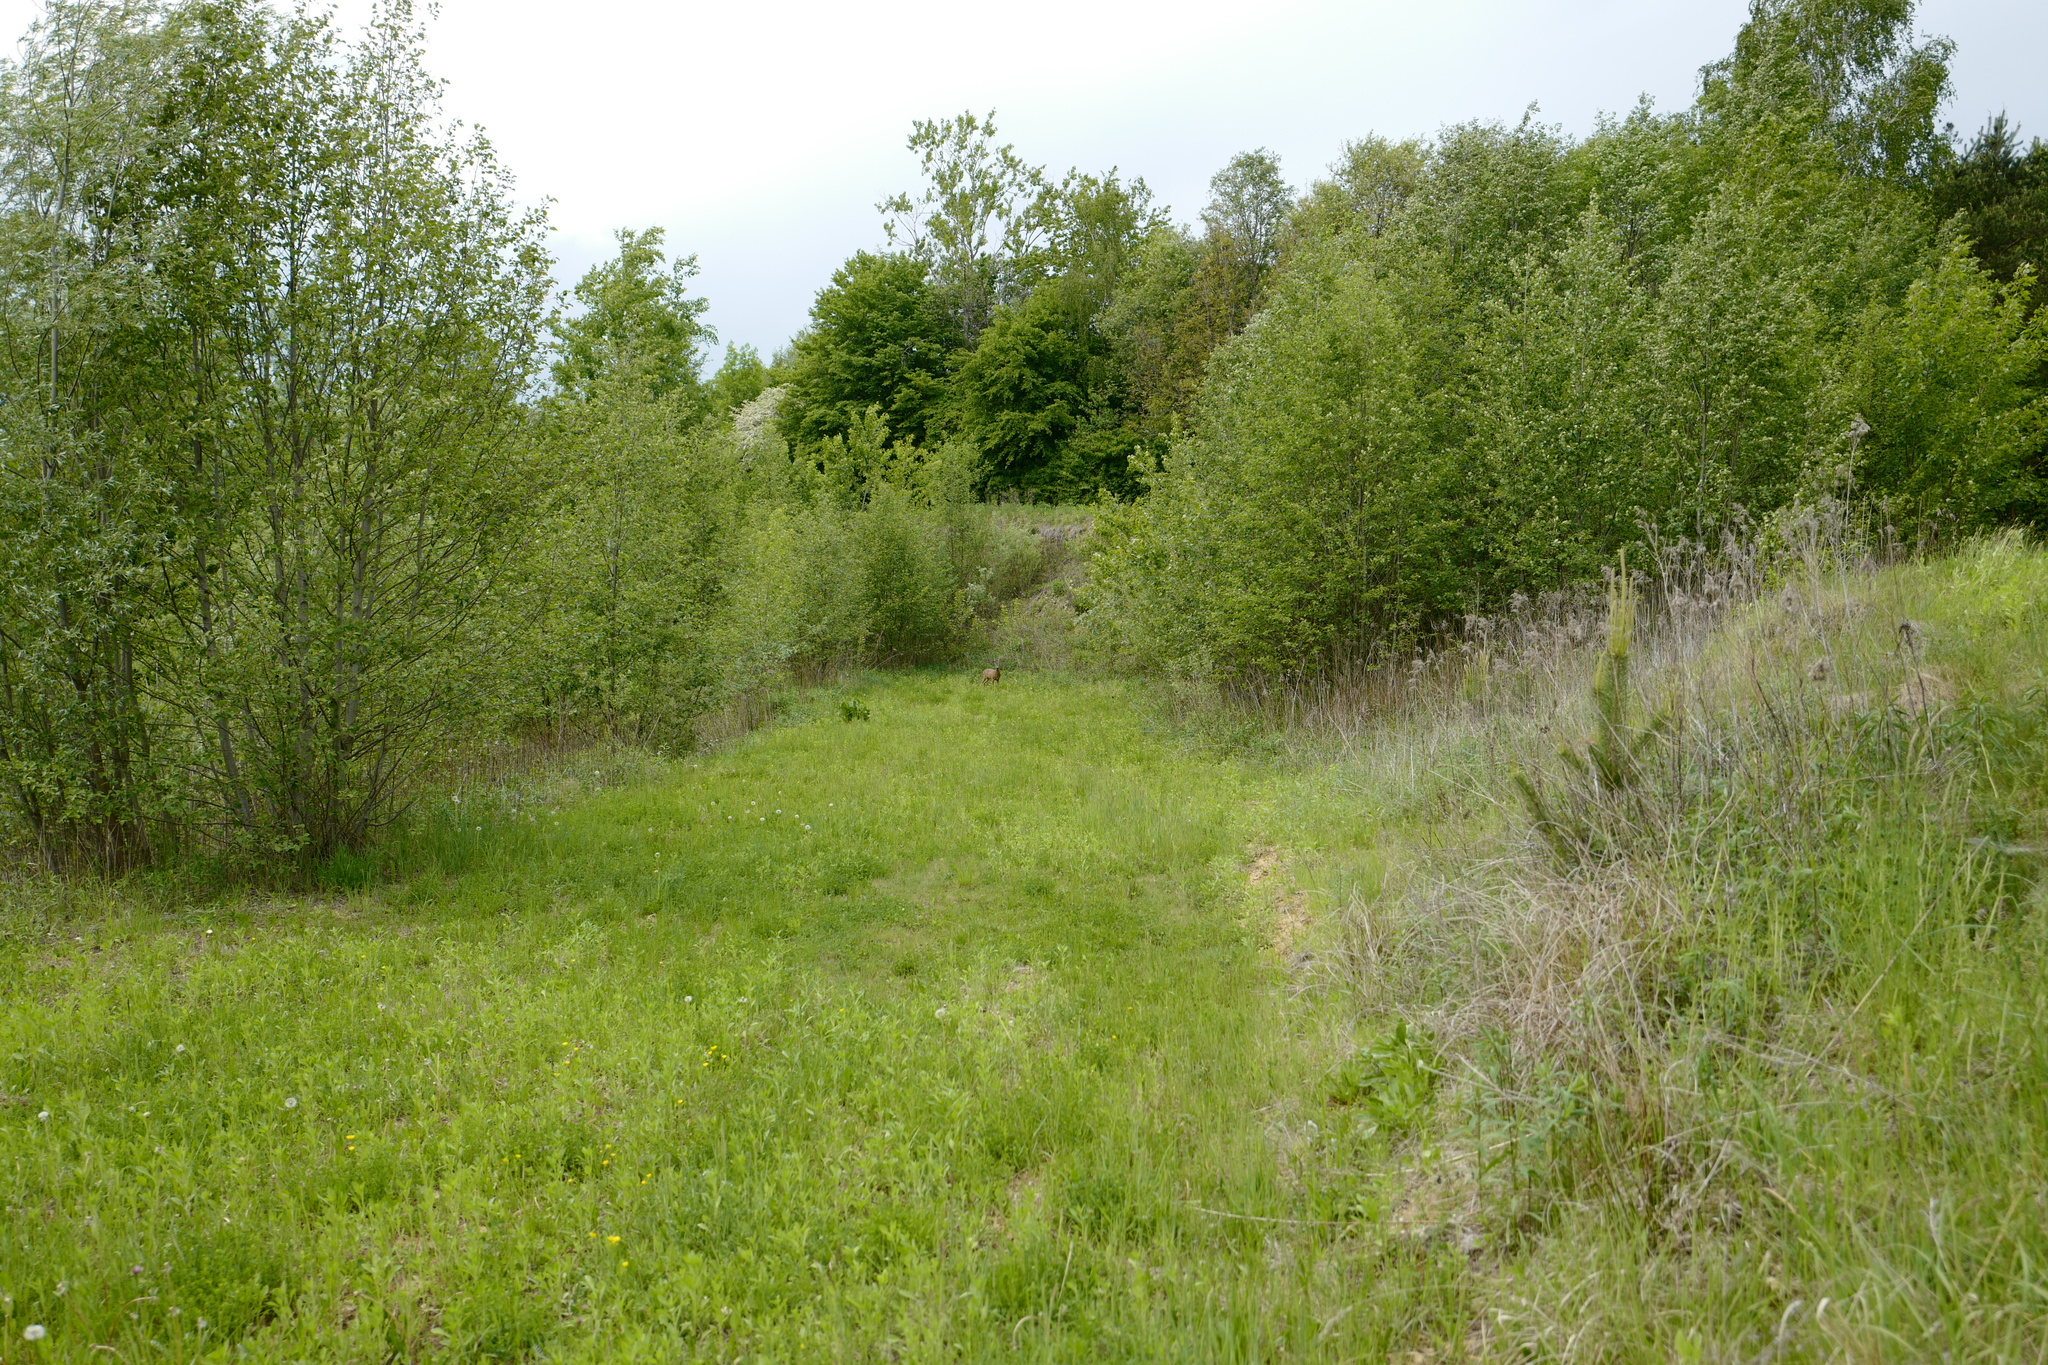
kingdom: Animalia
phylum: Chordata
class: Mammalia
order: Artiodactyla
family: Cervidae
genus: Capreolus
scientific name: Capreolus capreolus
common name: Western roe deer
